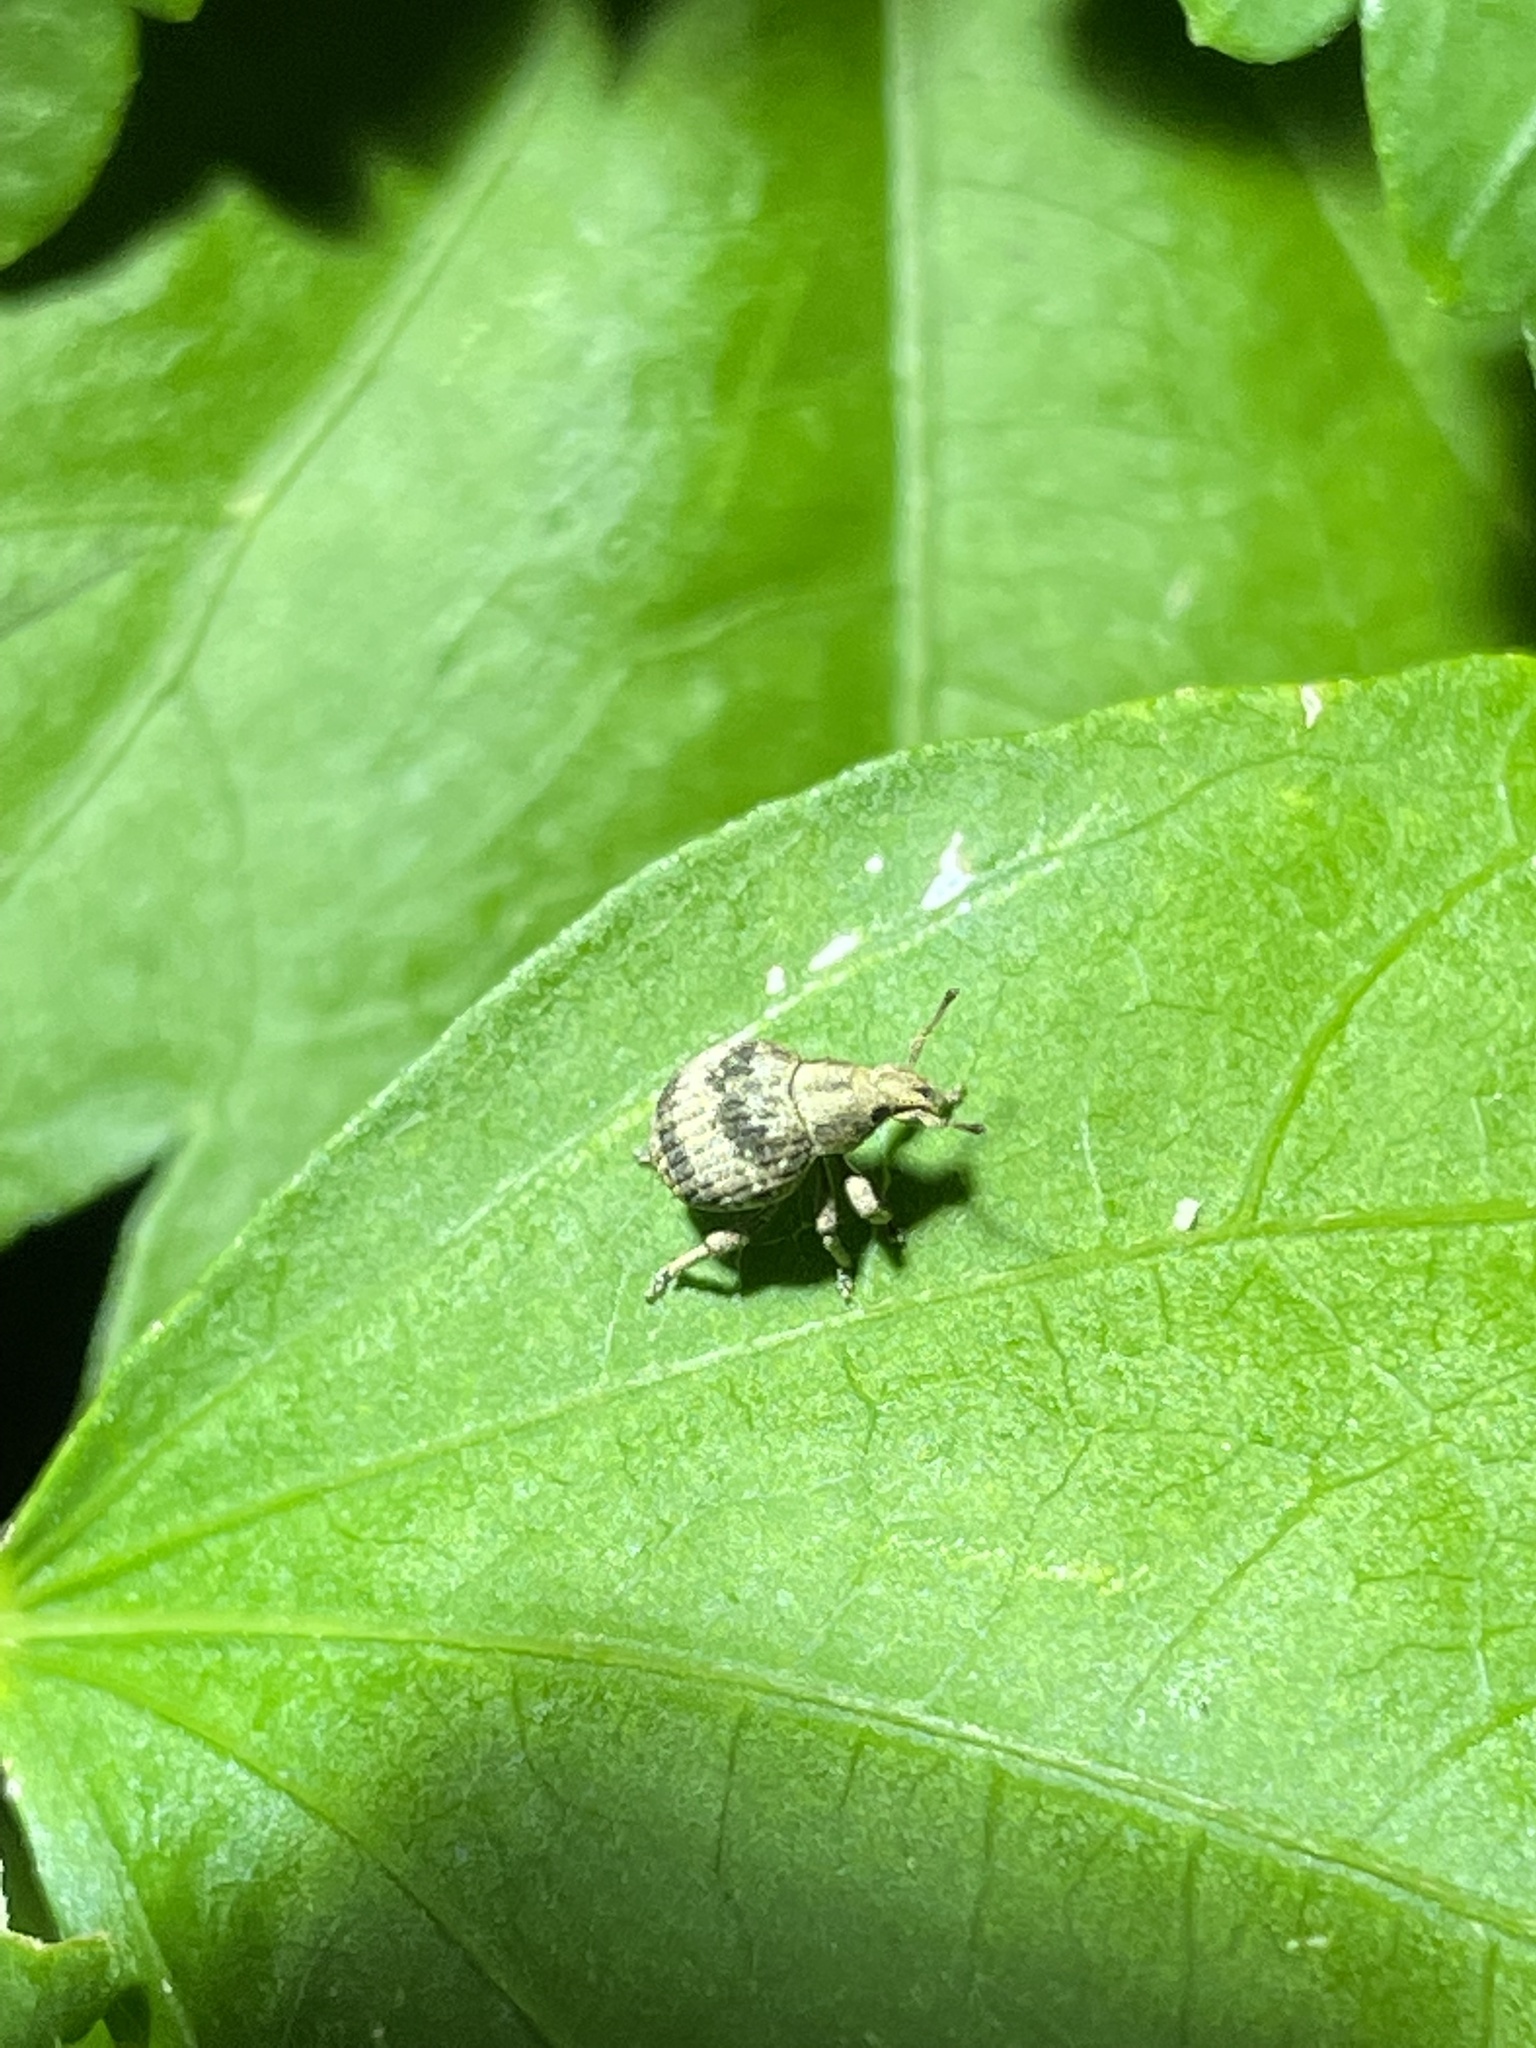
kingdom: Animalia
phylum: Arthropoda
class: Insecta
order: Coleoptera
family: Curculionidae
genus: Pseudocneorhinus
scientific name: Pseudocneorhinus bifasciatus
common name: Two-banded japanese weevil
